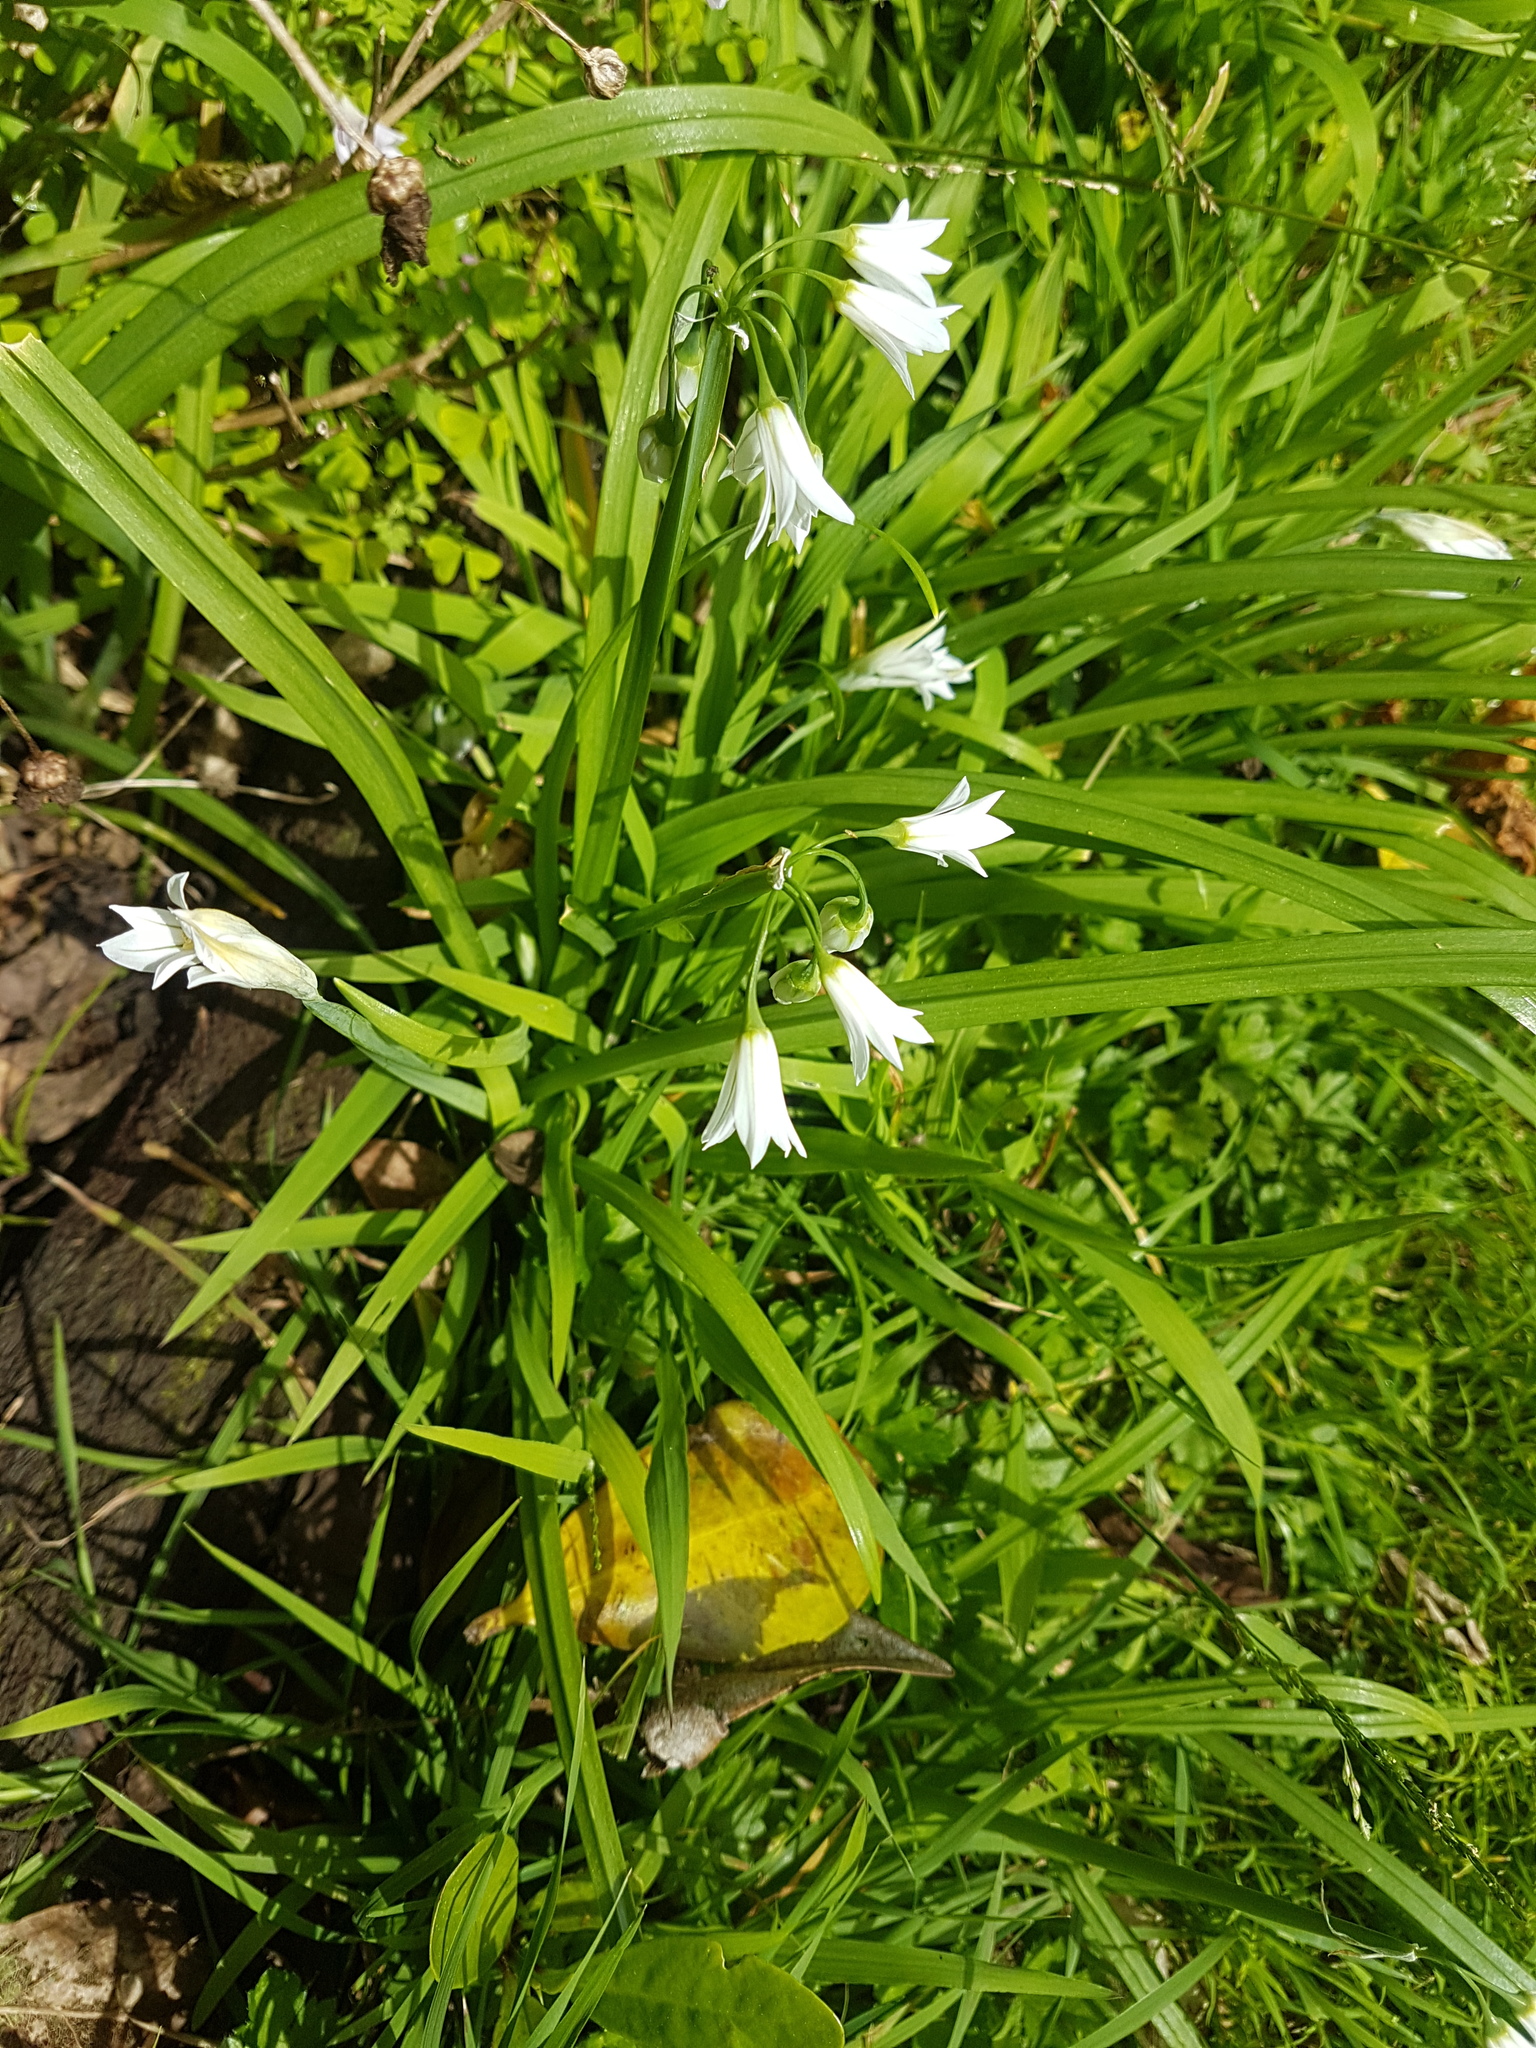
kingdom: Plantae
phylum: Tracheophyta
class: Liliopsida
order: Asparagales
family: Amaryllidaceae
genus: Allium
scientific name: Allium triquetrum
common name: Three-cornered garlic
